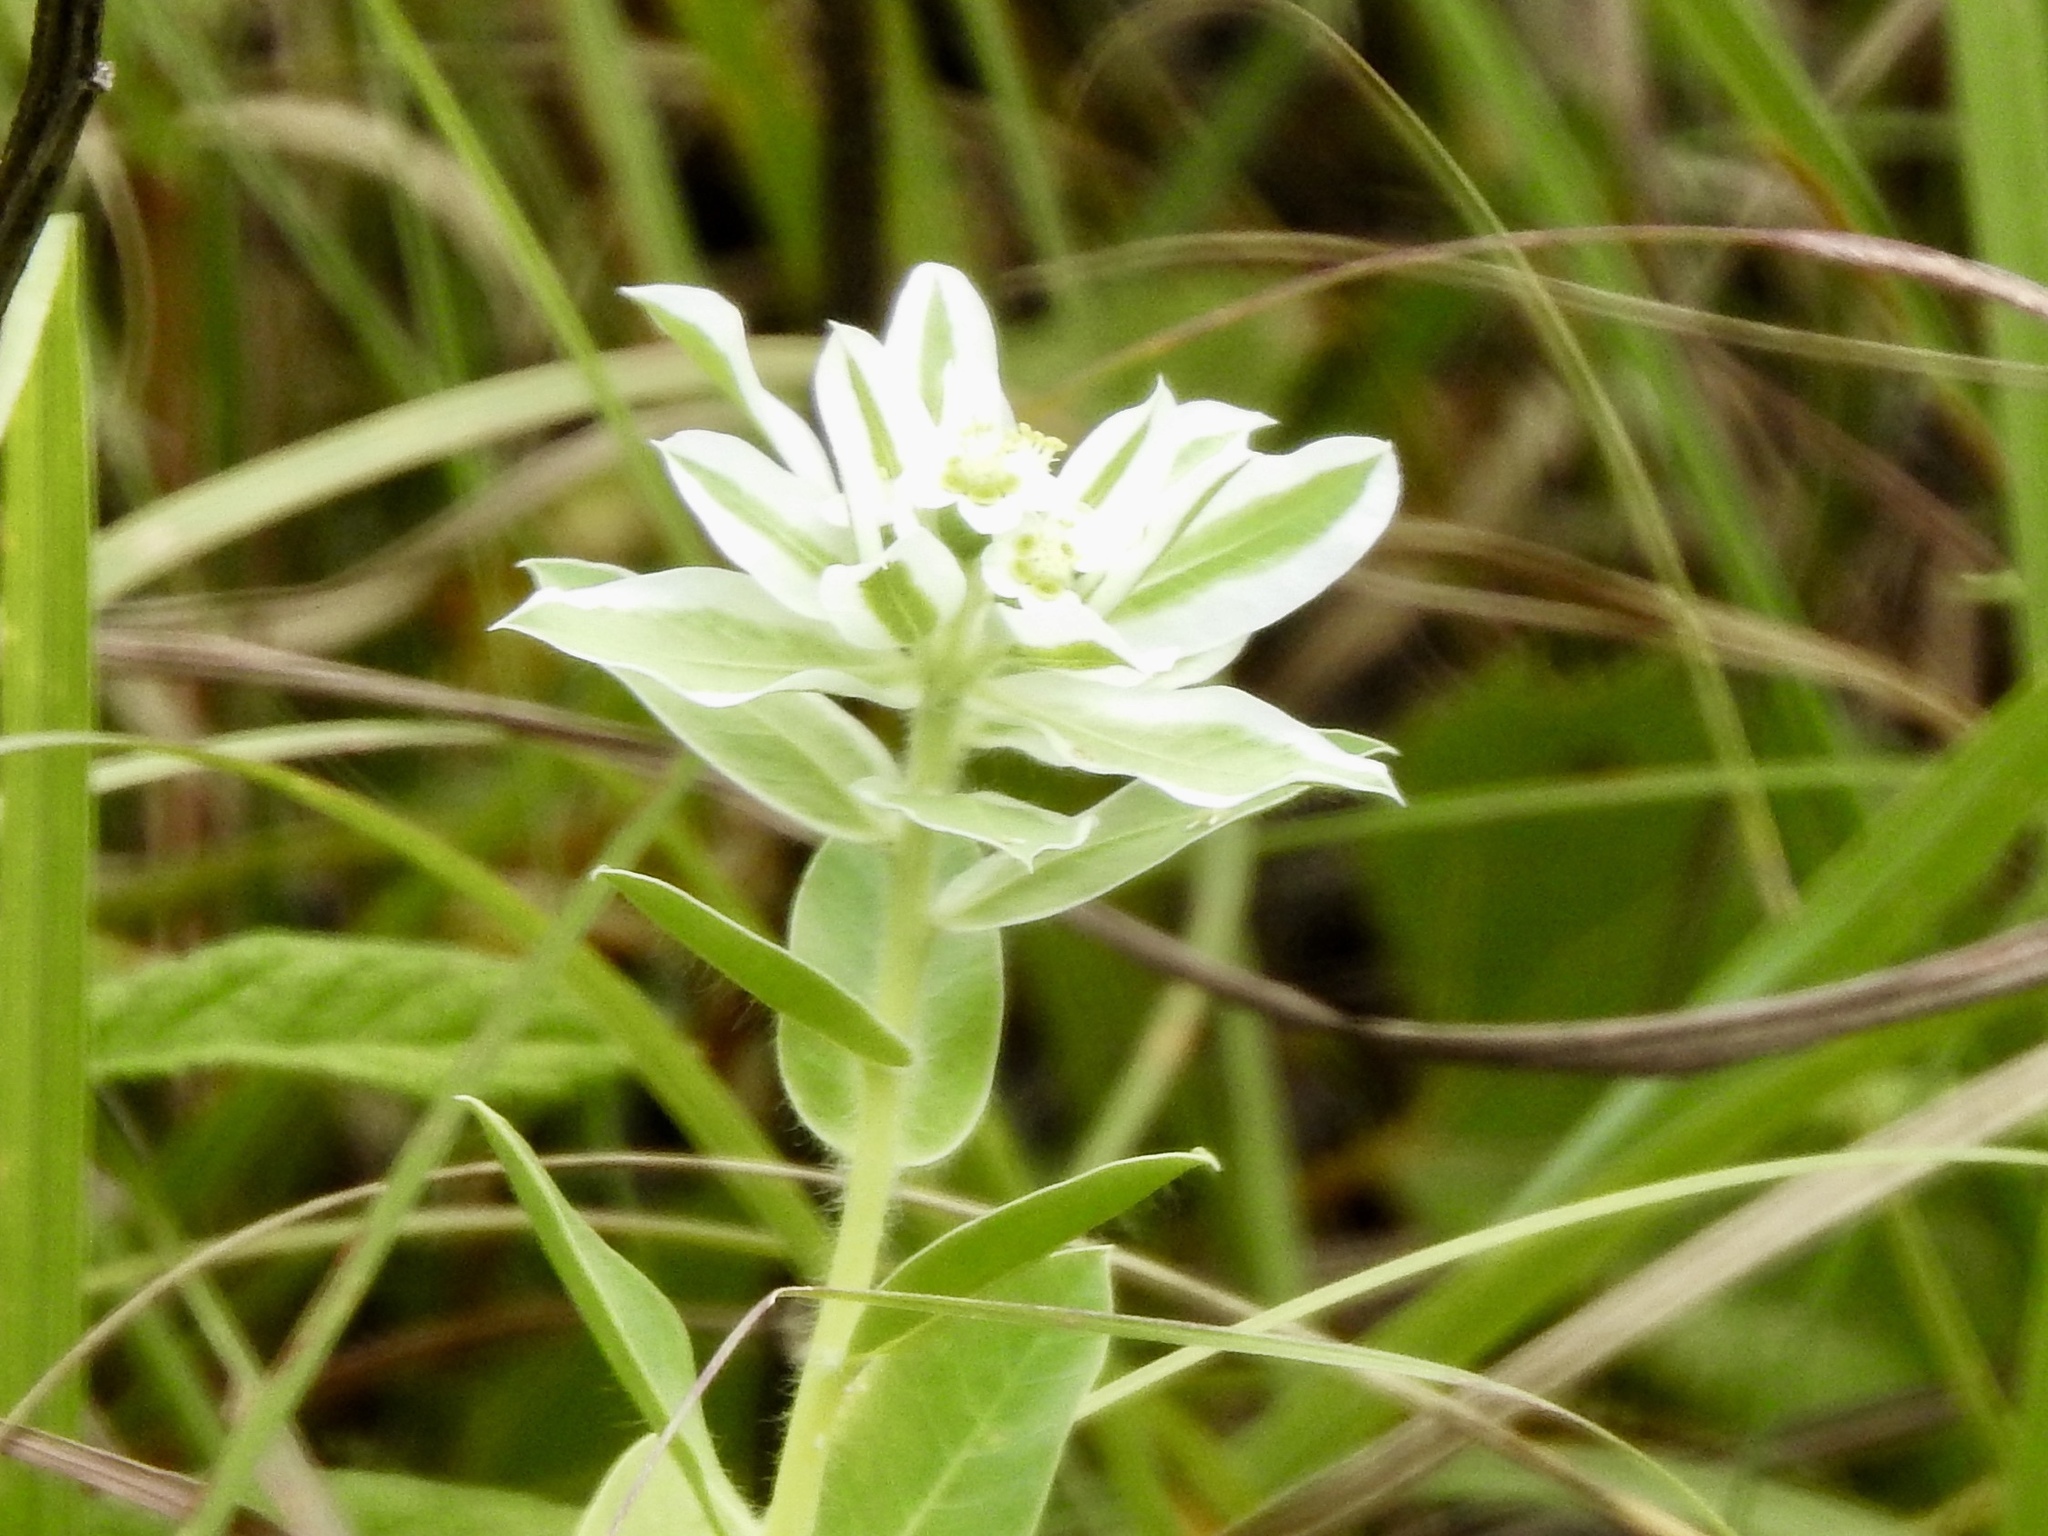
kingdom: Plantae
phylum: Tracheophyta
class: Magnoliopsida
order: Malpighiales
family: Euphorbiaceae
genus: Euphorbia
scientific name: Euphorbia marginata
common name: Ghostweed
